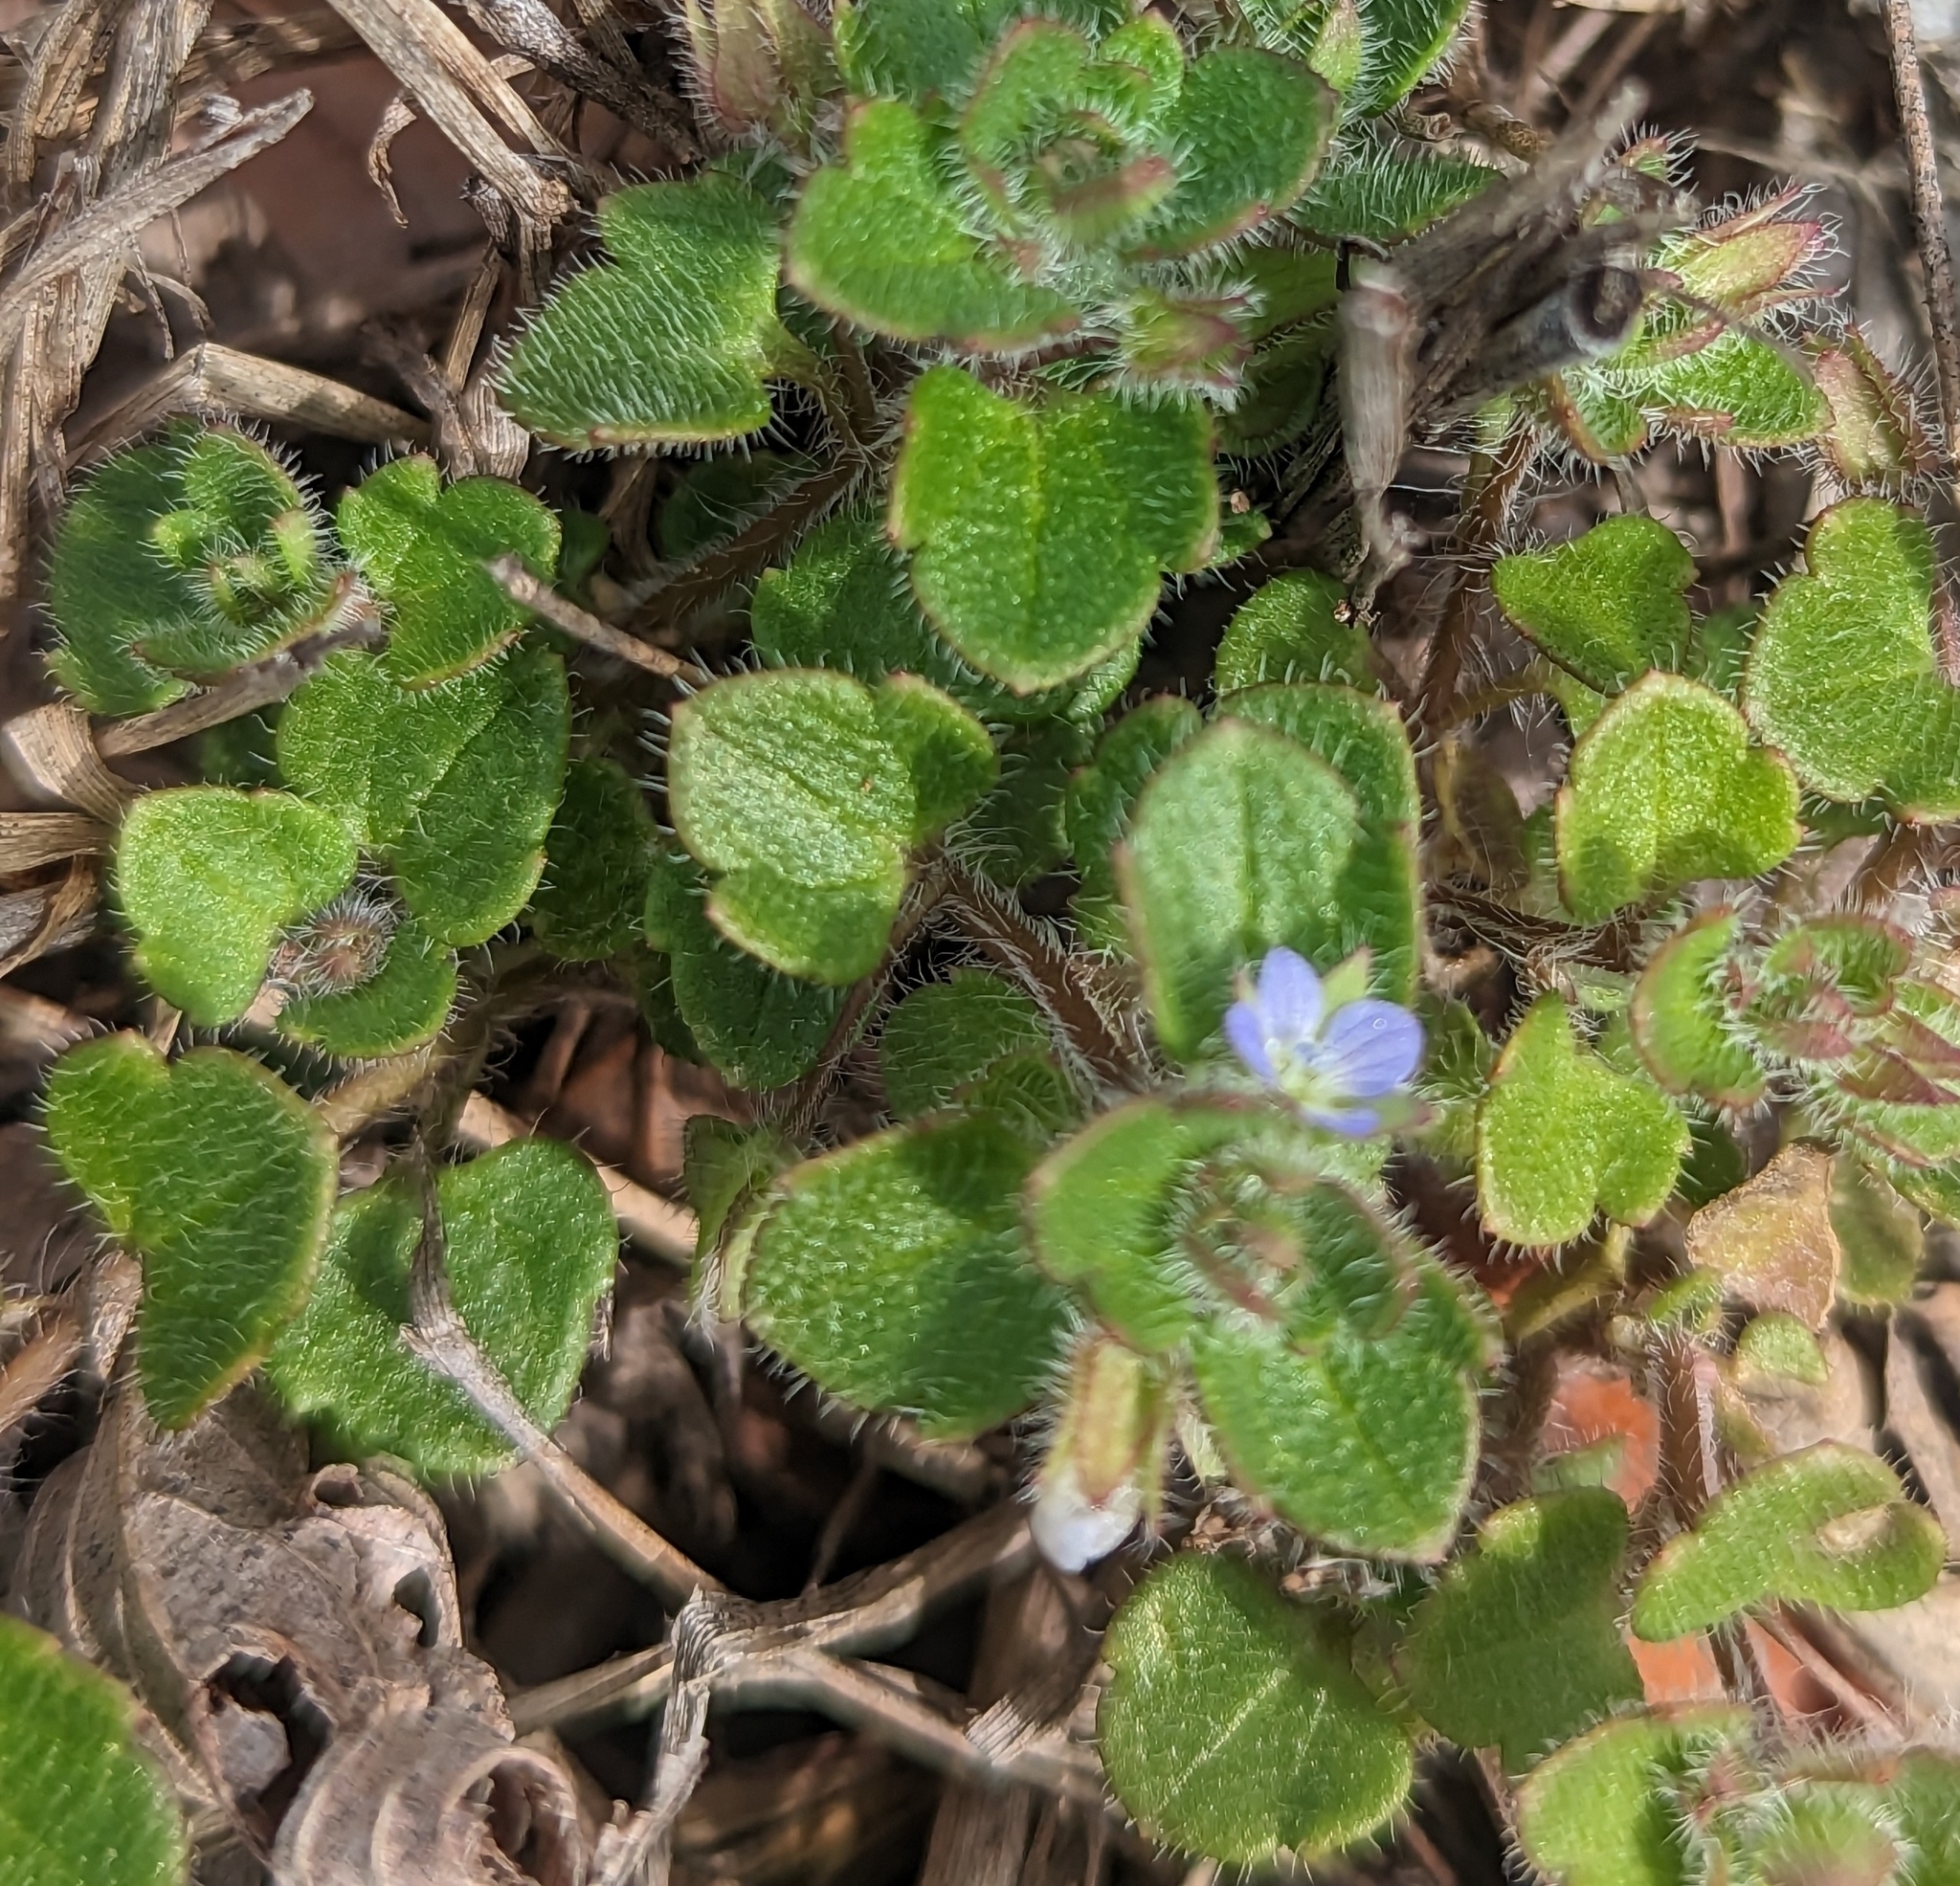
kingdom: Plantae
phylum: Tracheophyta
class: Magnoliopsida
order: Lamiales
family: Plantaginaceae
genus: Veronica
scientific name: Veronica hederifolia
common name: Ivy-leaved speedwell
